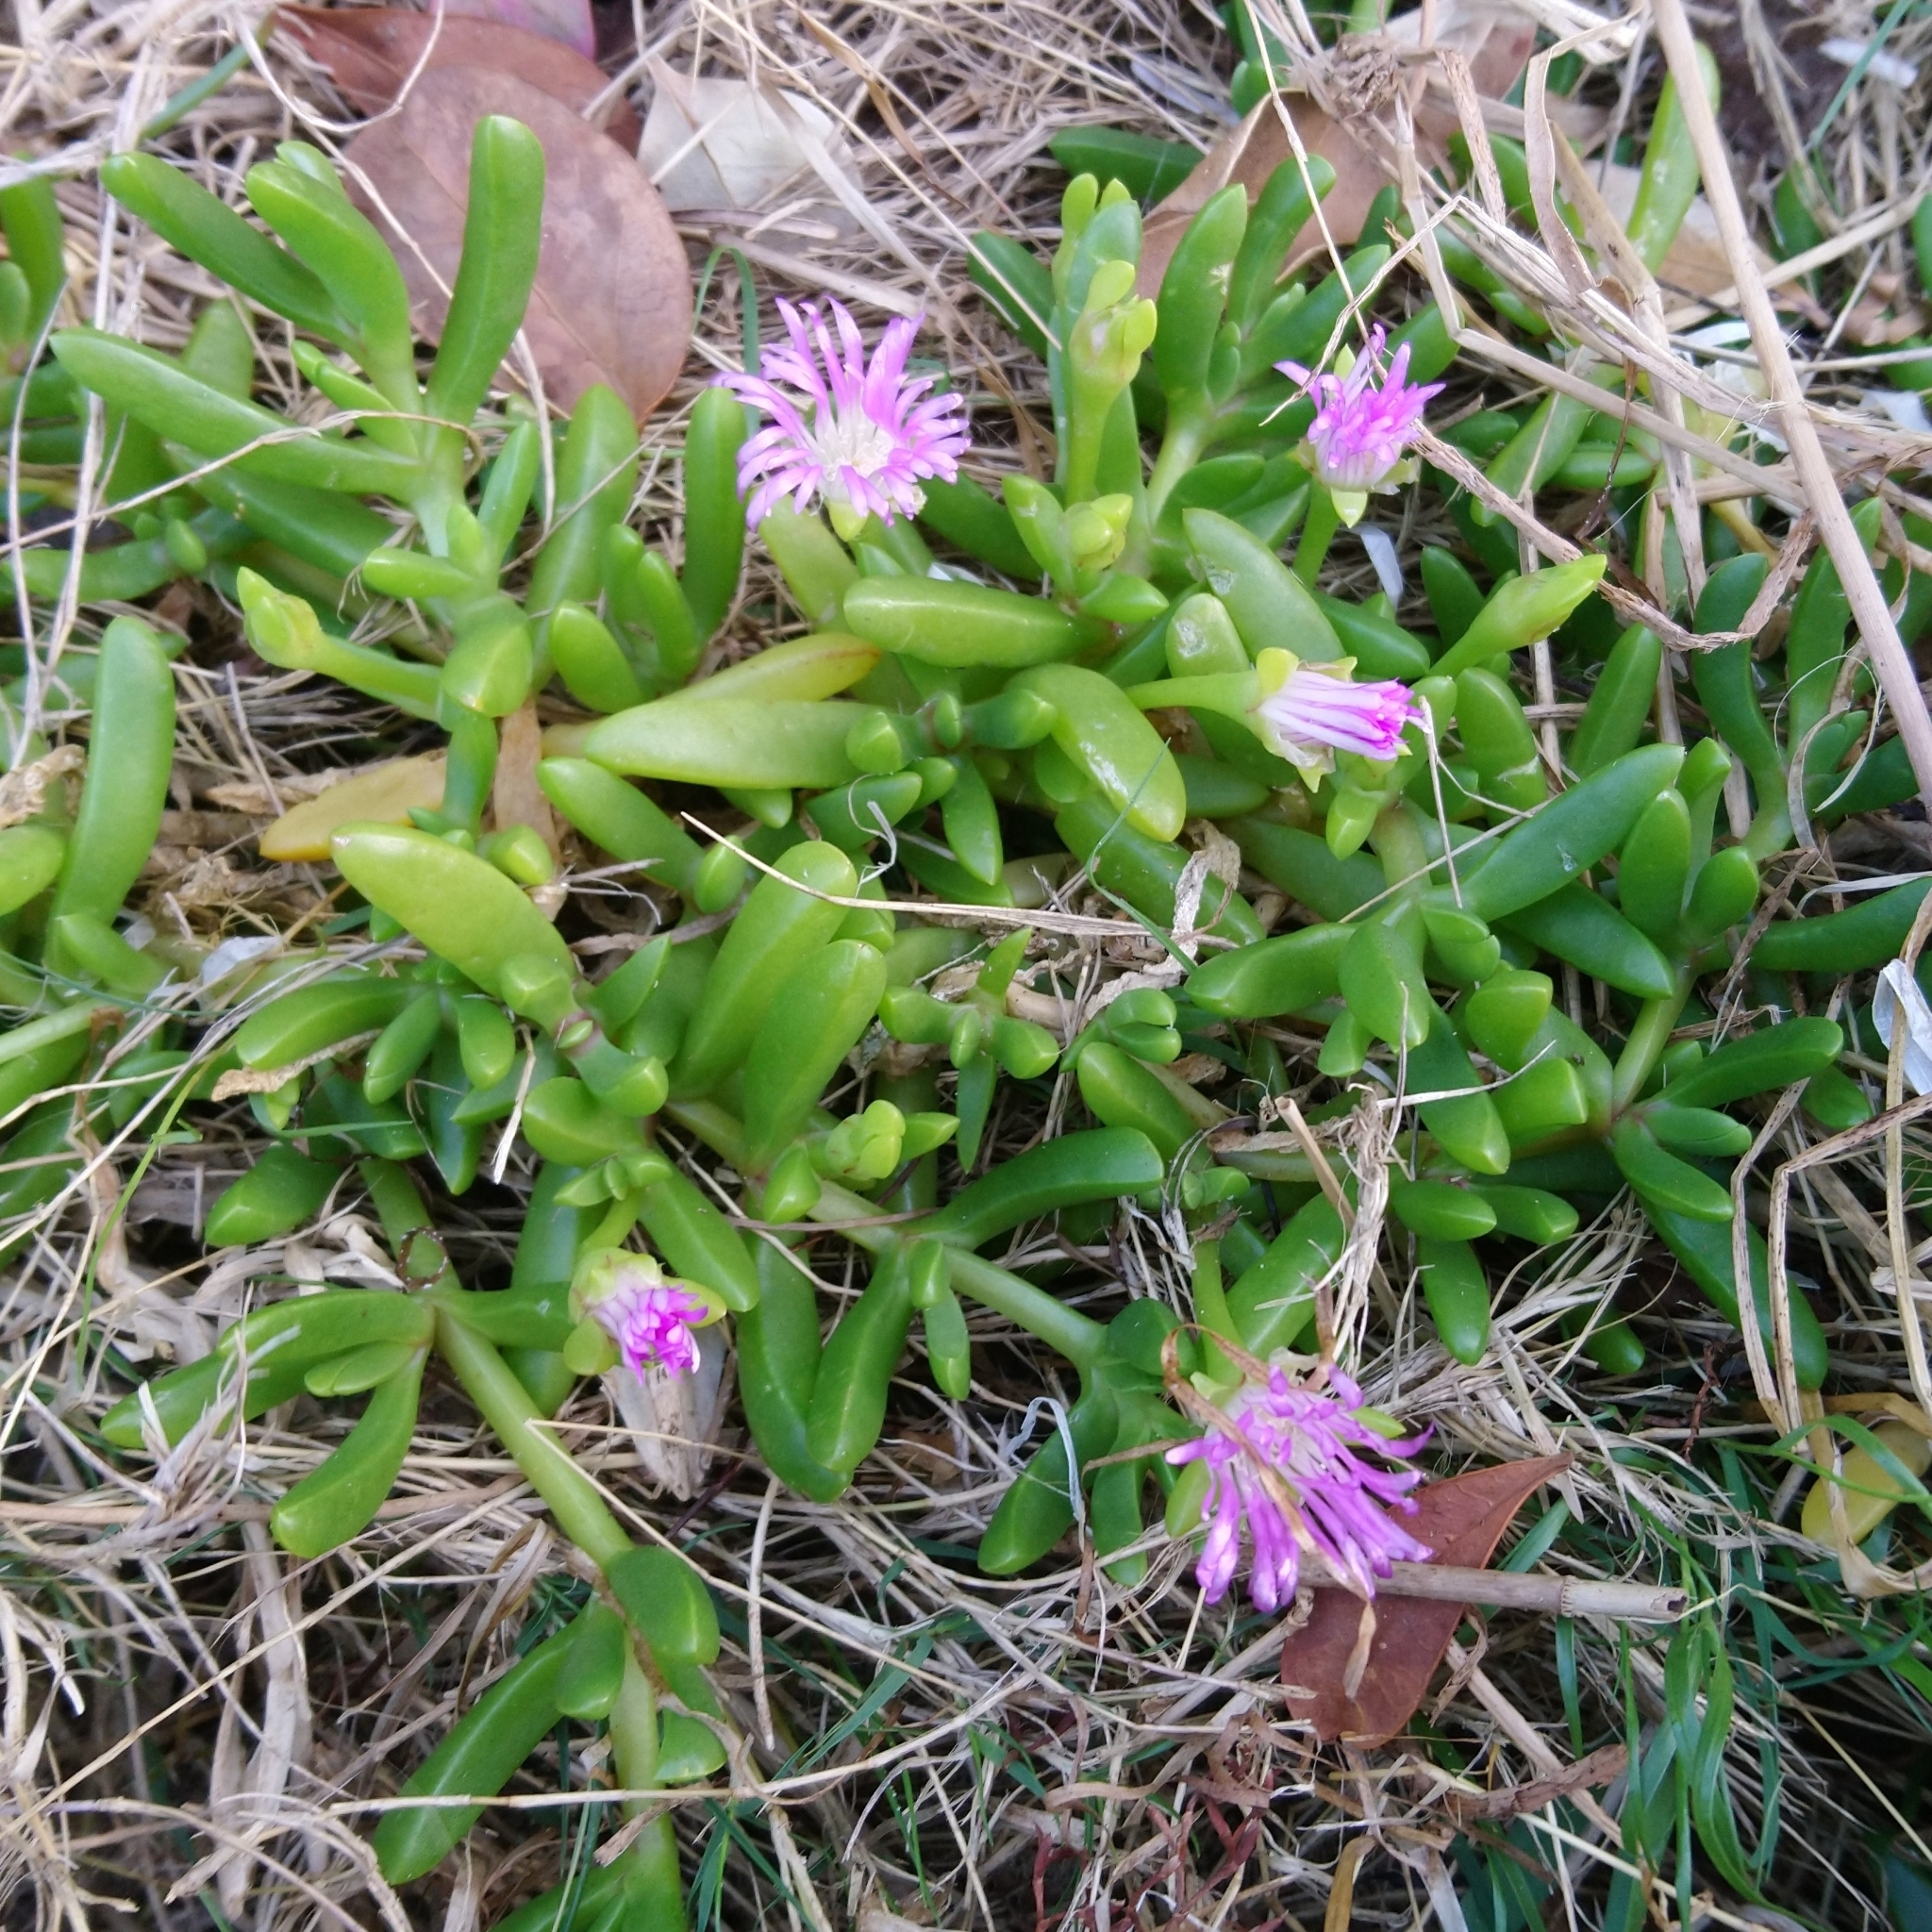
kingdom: Plantae
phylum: Tracheophyta
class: Magnoliopsida
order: Caryophyllales
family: Aizoaceae
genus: Disphyma
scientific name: Disphyma crassifolium
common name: Purple dewplant
